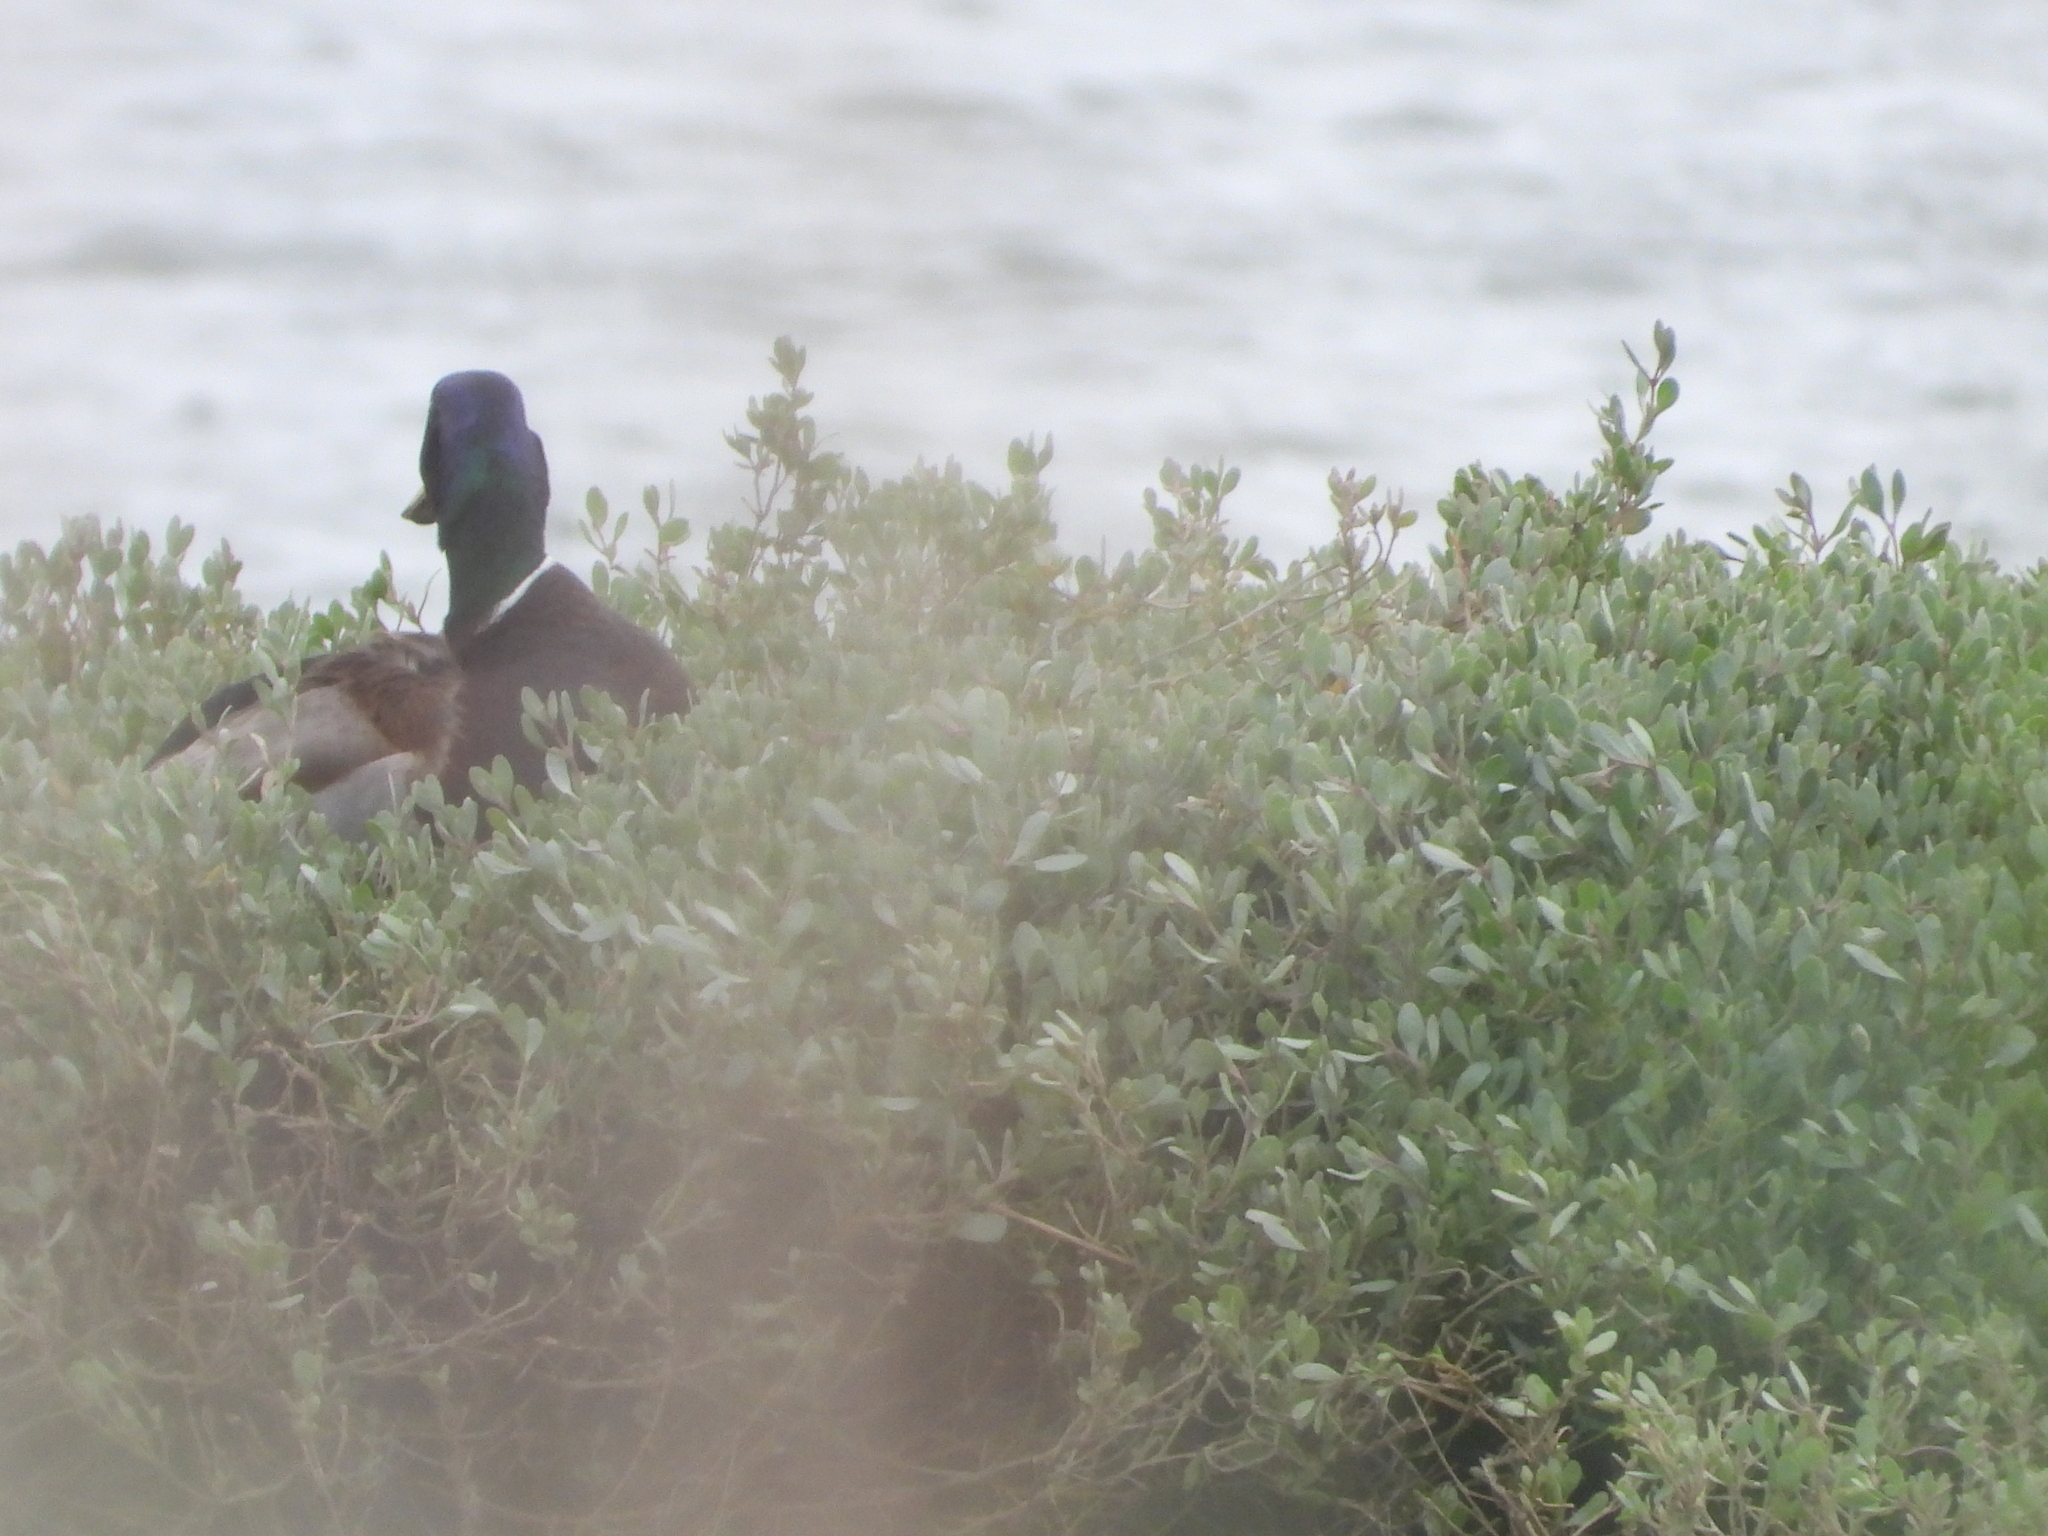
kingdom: Animalia
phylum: Chordata
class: Aves
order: Anseriformes
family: Anatidae
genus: Anas
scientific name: Anas platyrhynchos
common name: Mallard
